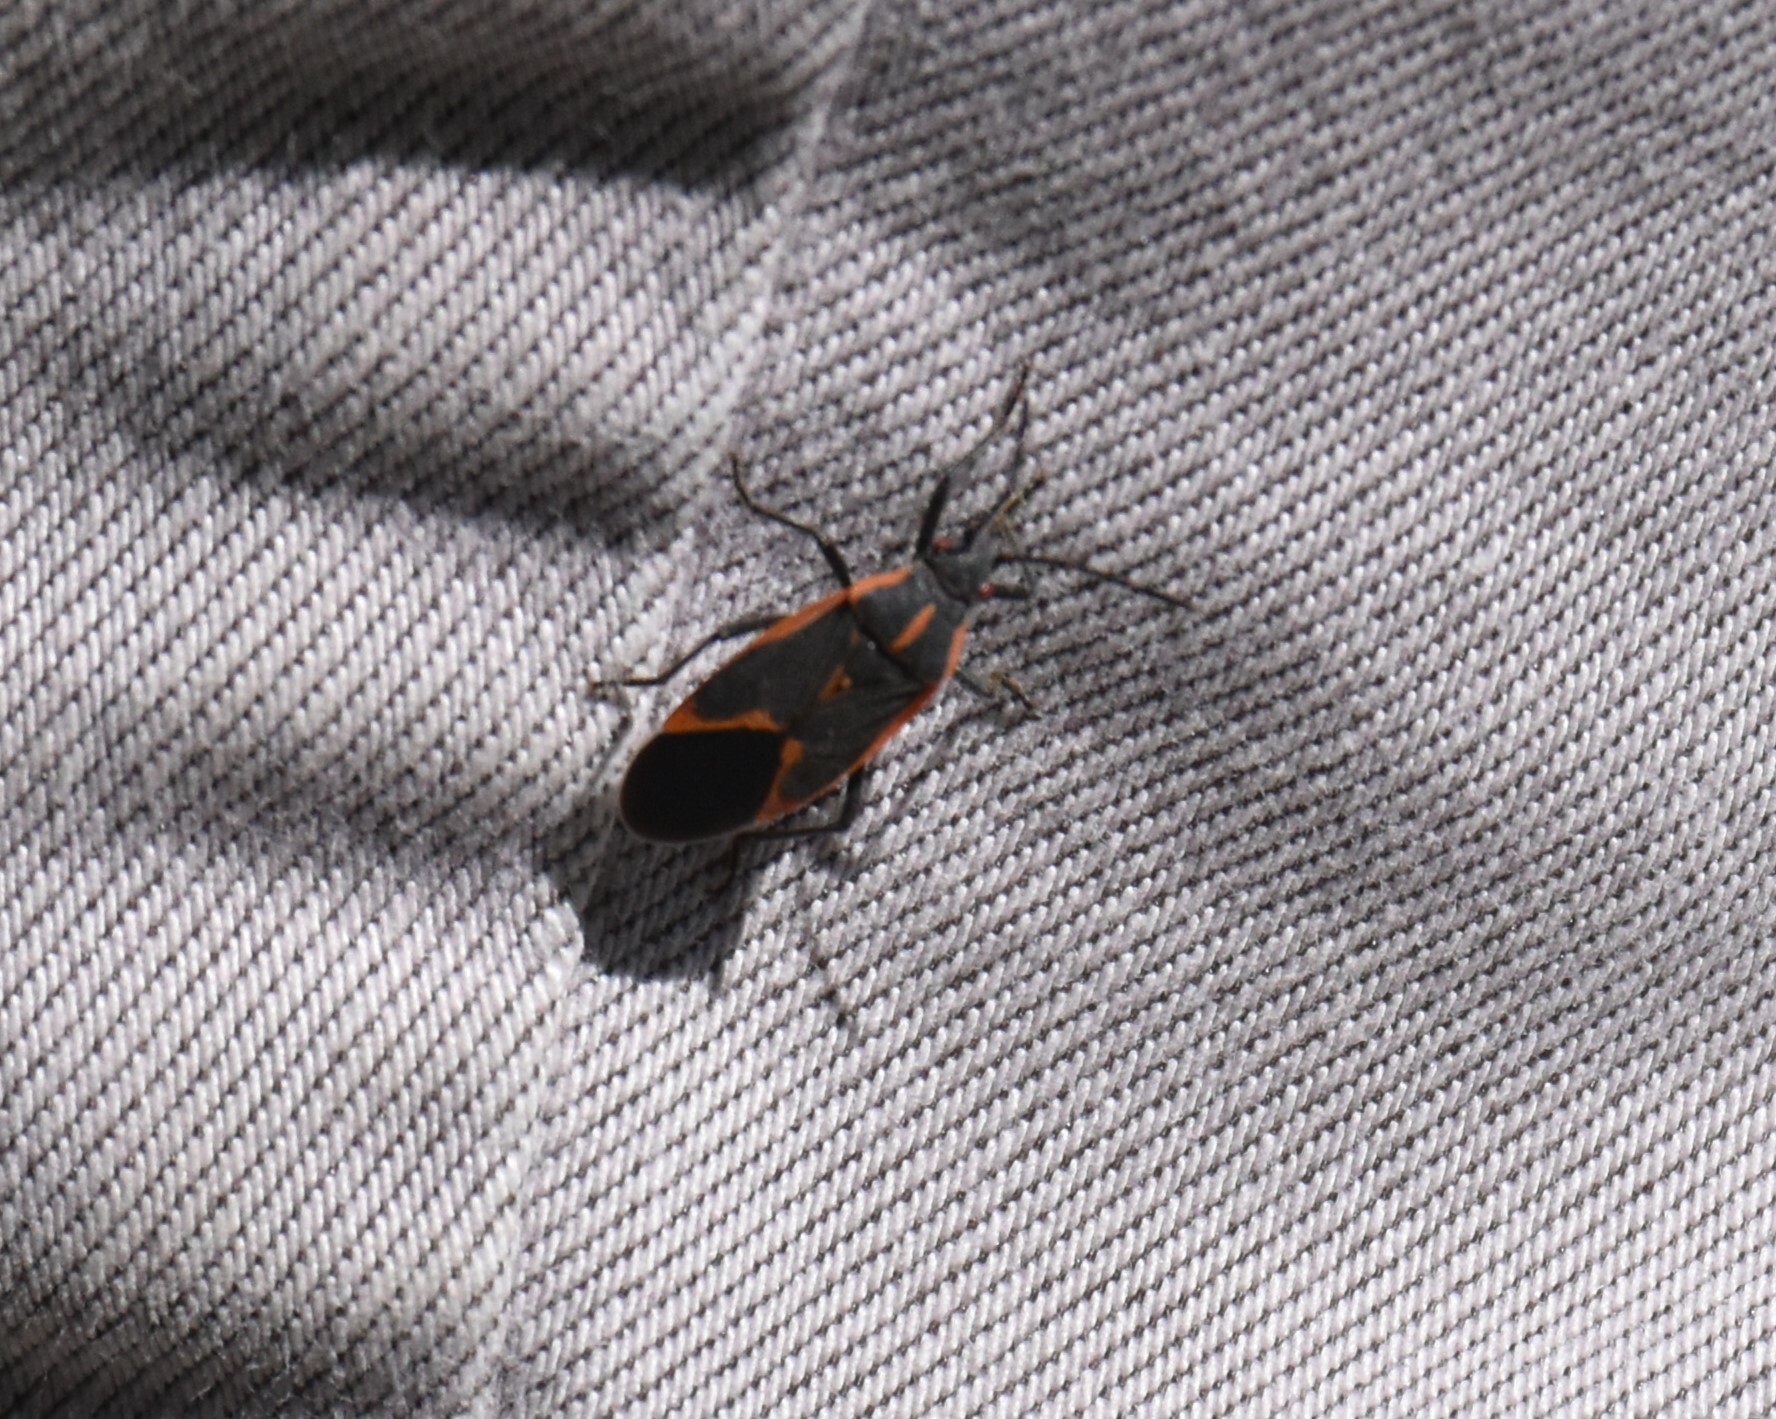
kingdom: Animalia
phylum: Arthropoda
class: Insecta
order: Hemiptera
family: Rhopalidae
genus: Boisea
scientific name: Boisea trivittata
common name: Boxelder bug
